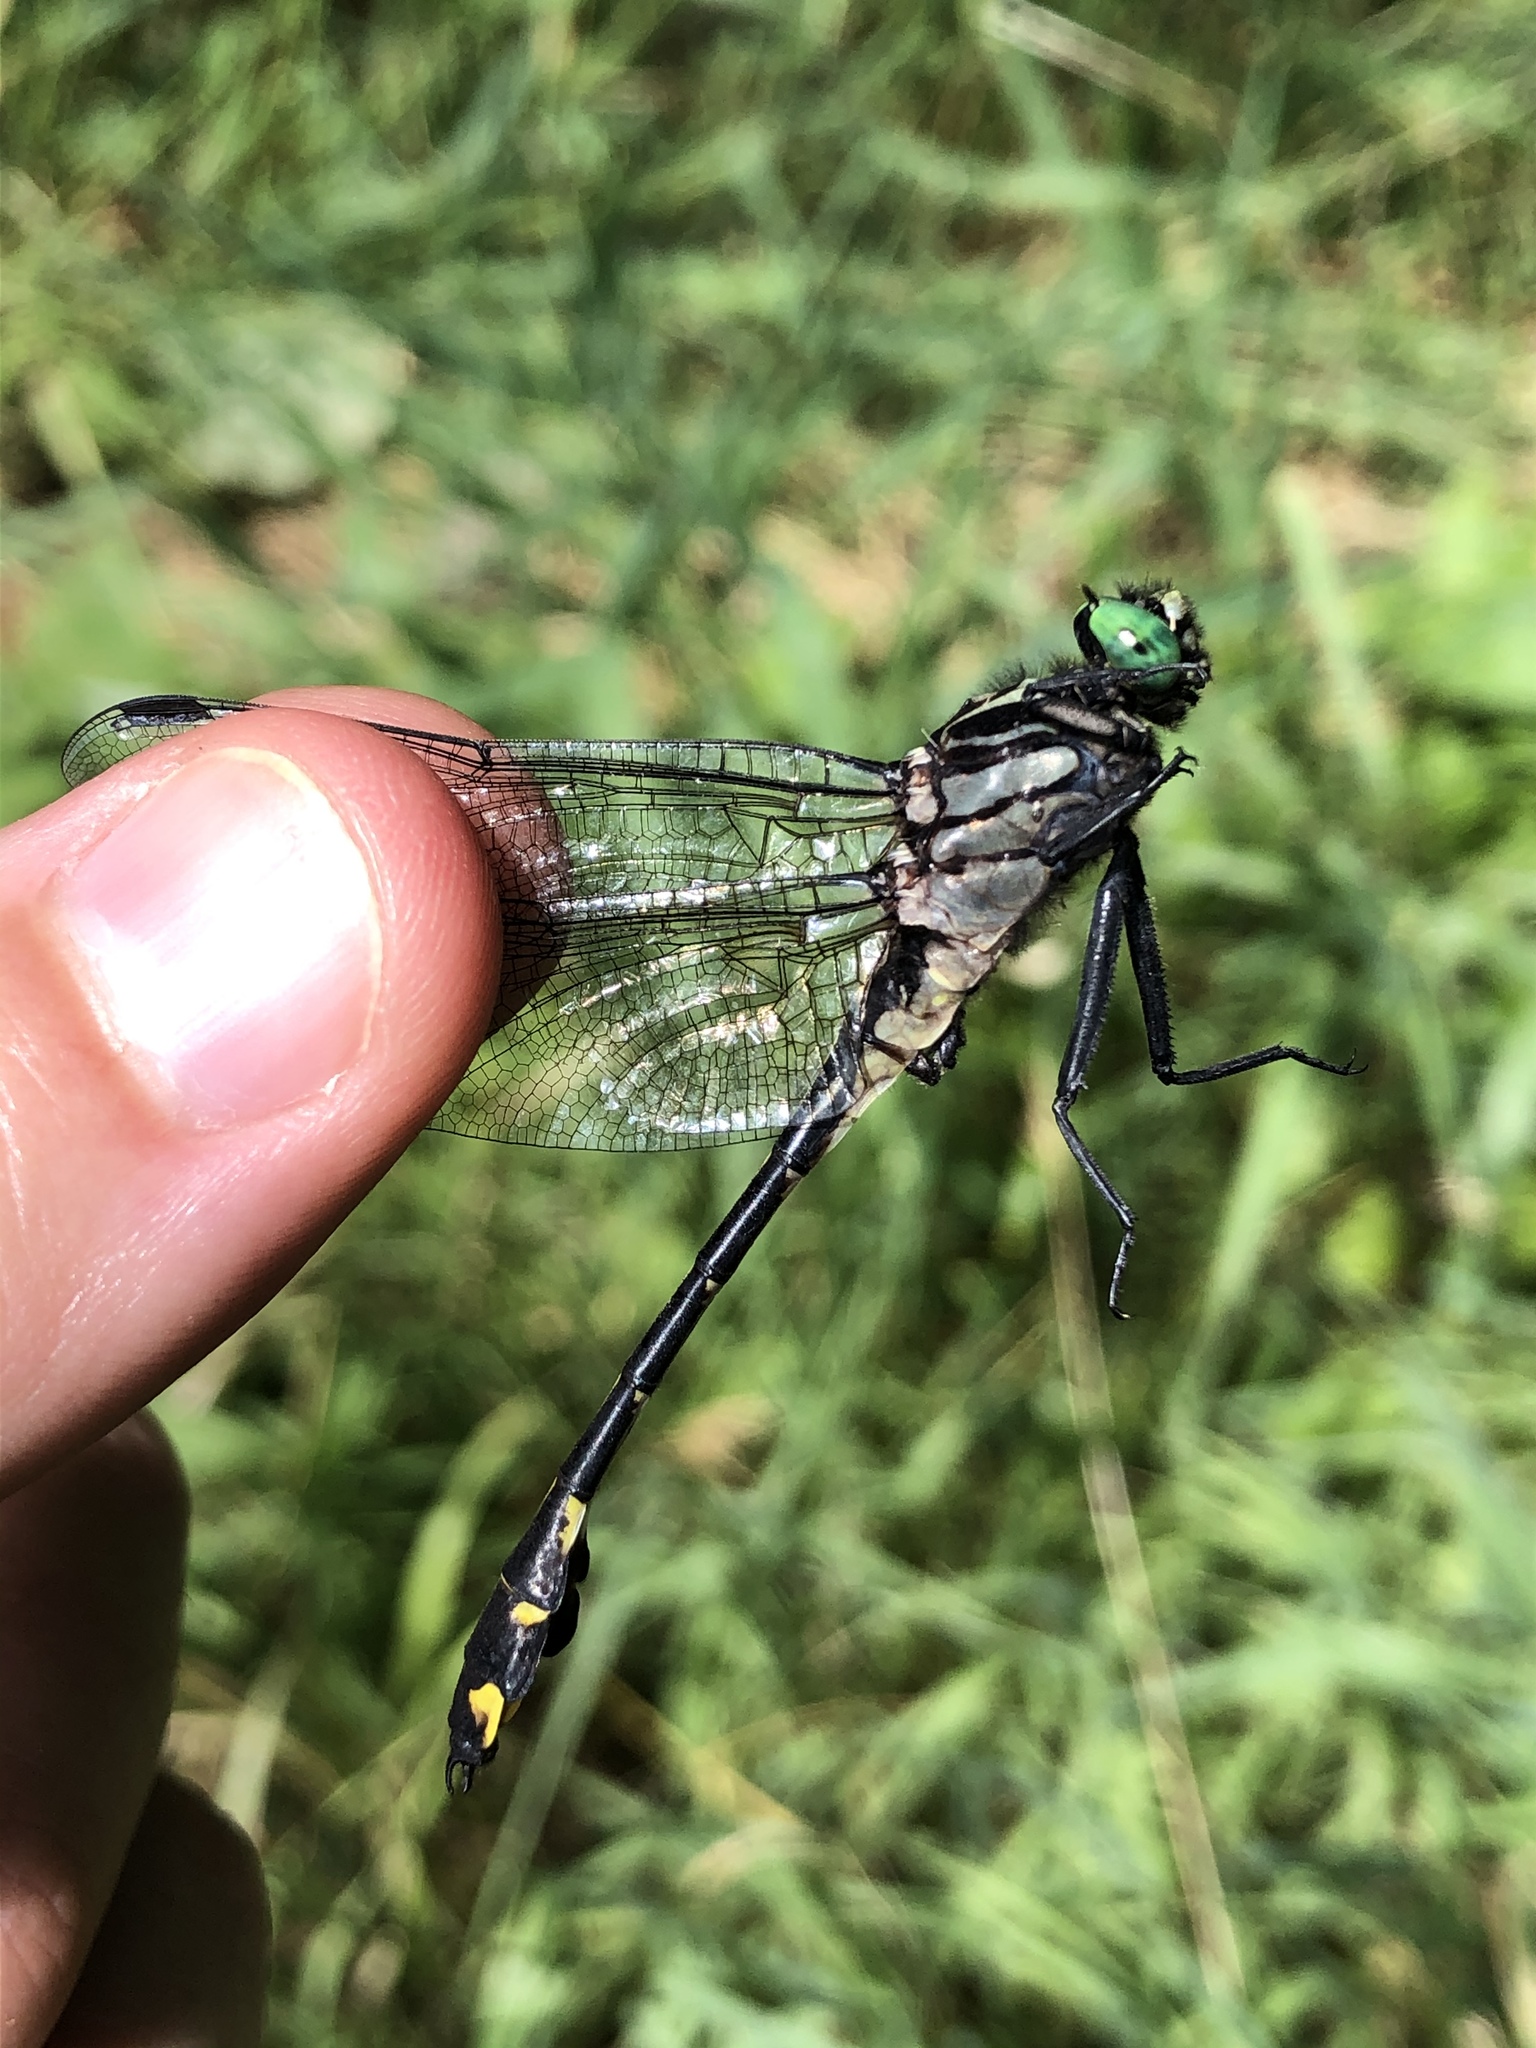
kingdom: Animalia
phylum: Arthropoda
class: Insecta
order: Odonata
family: Gomphidae
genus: Gomphurus
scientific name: Gomphurus vastus
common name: Cobra clubtail
